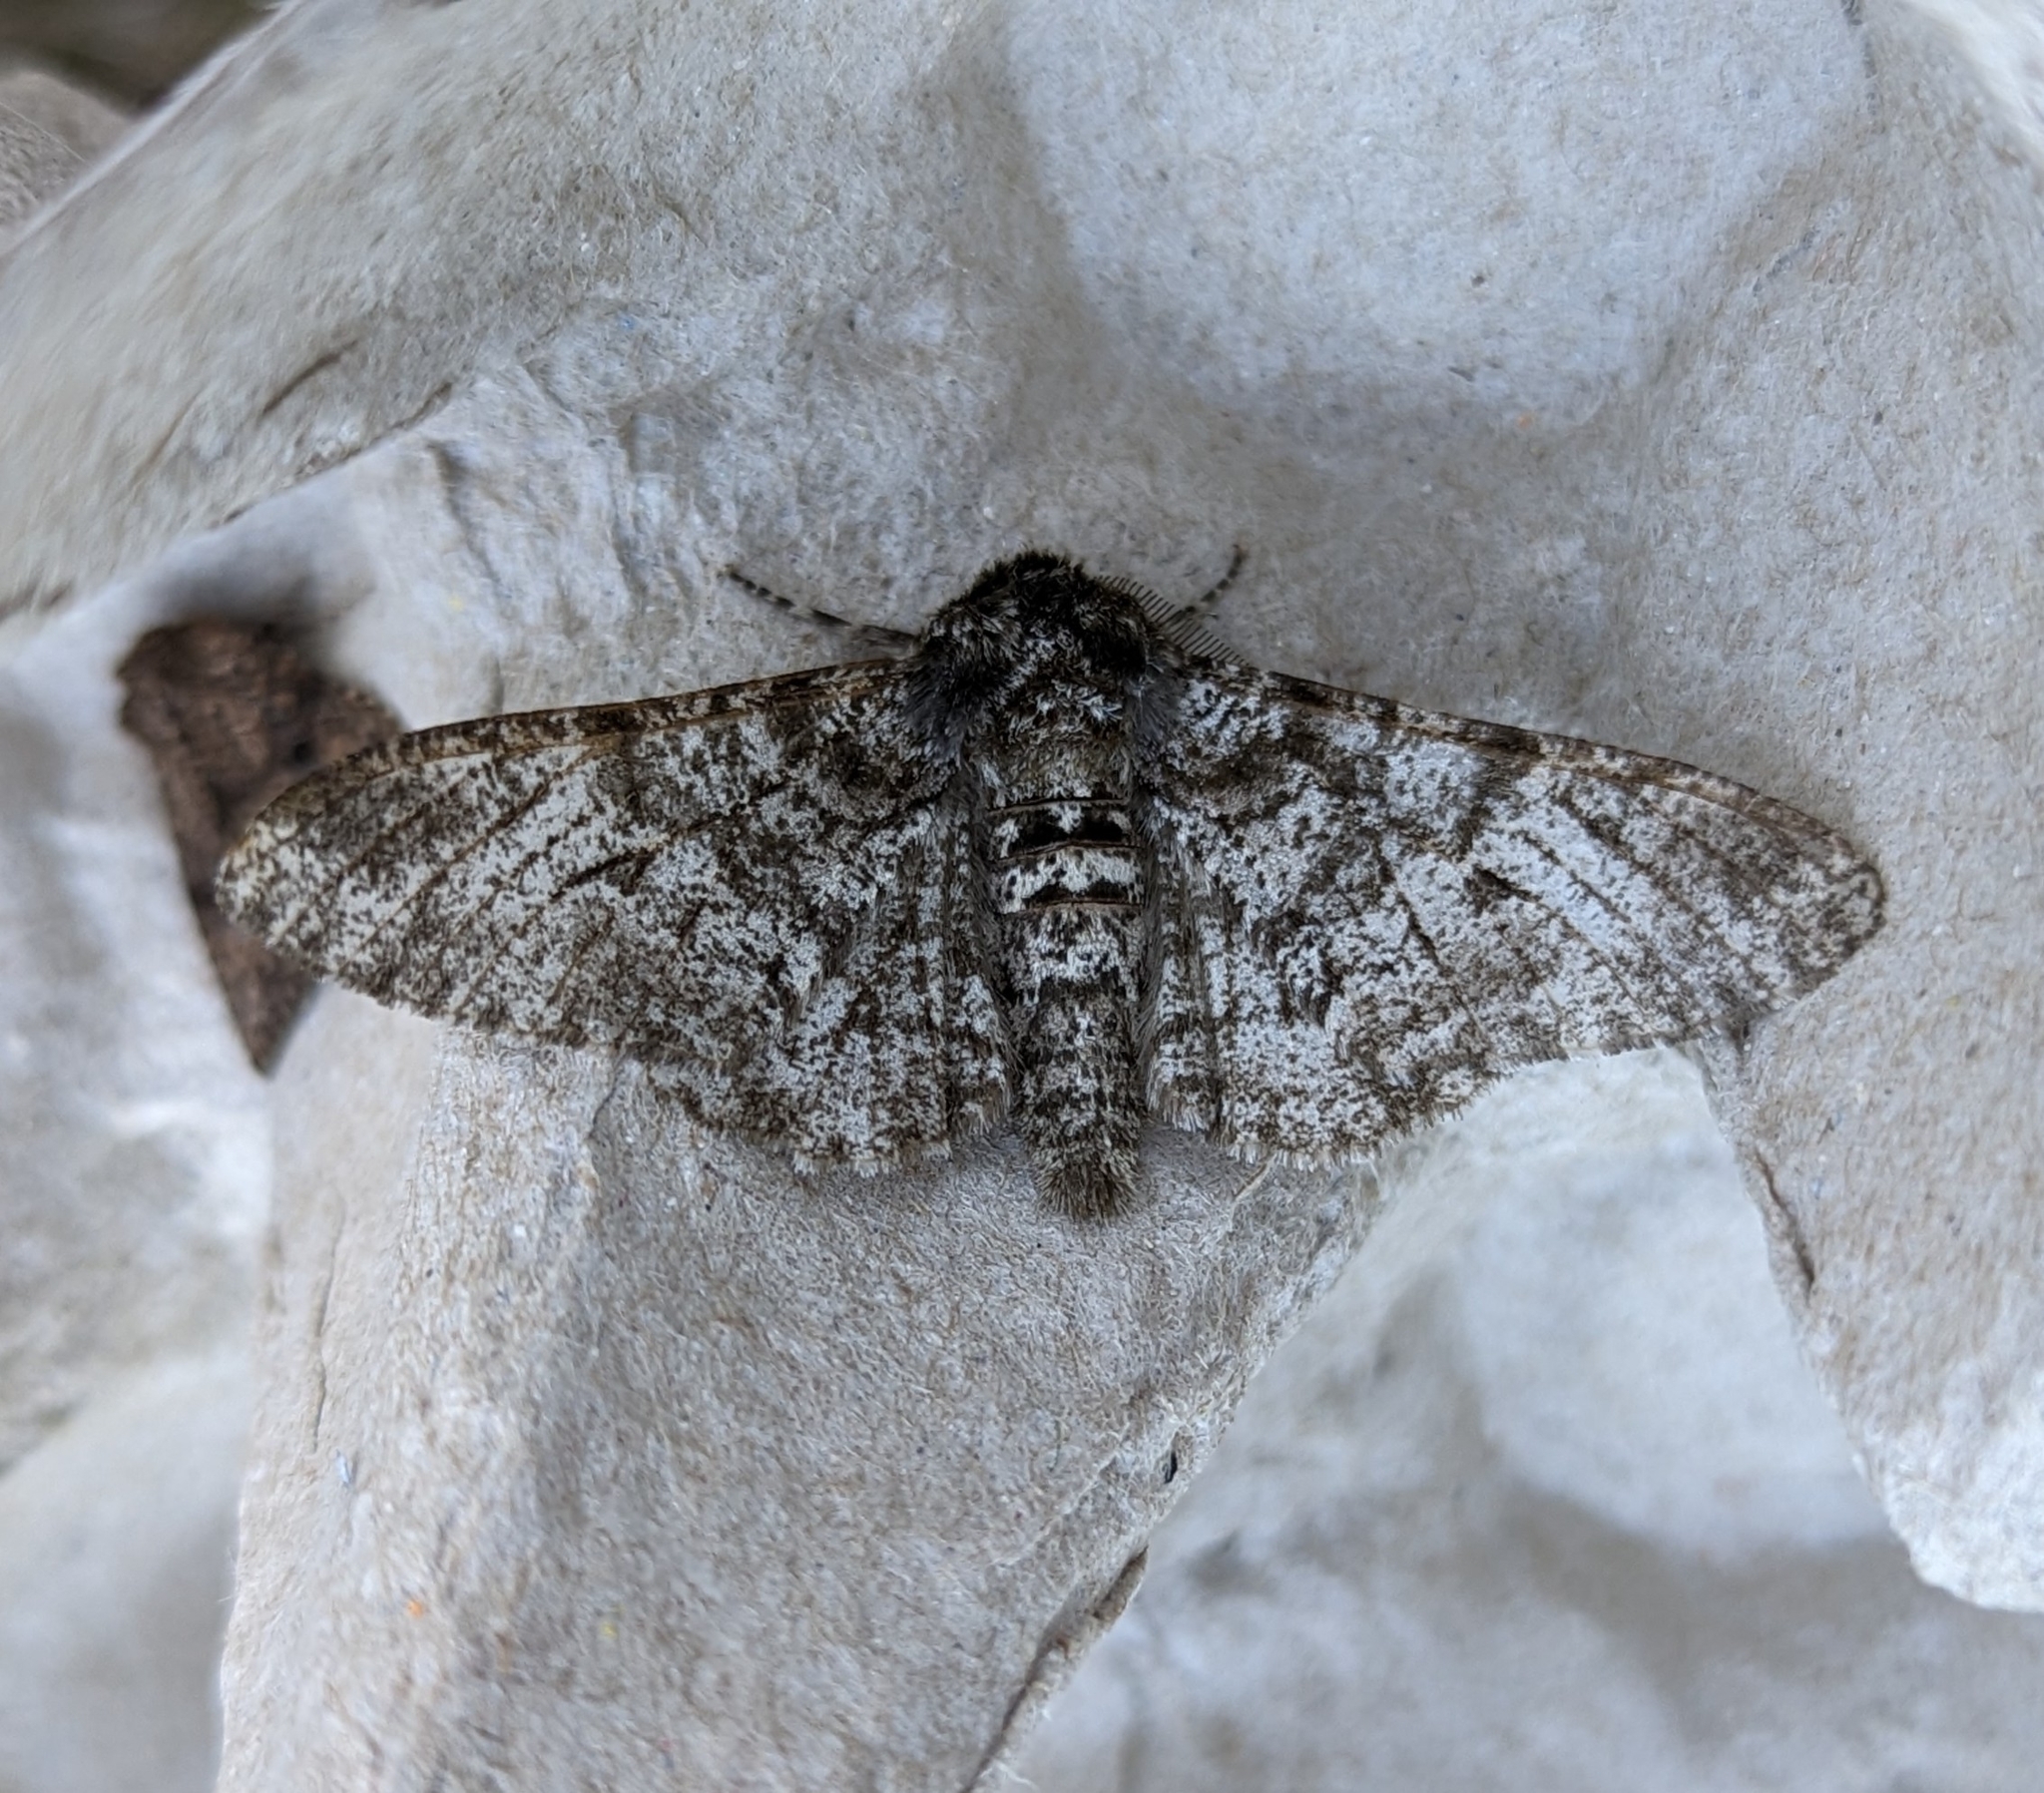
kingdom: Animalia
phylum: Arthropoda
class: Insecta
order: Lepidoptera
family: Geometridae
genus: Biston
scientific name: Biston betularia
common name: Peppered moth
